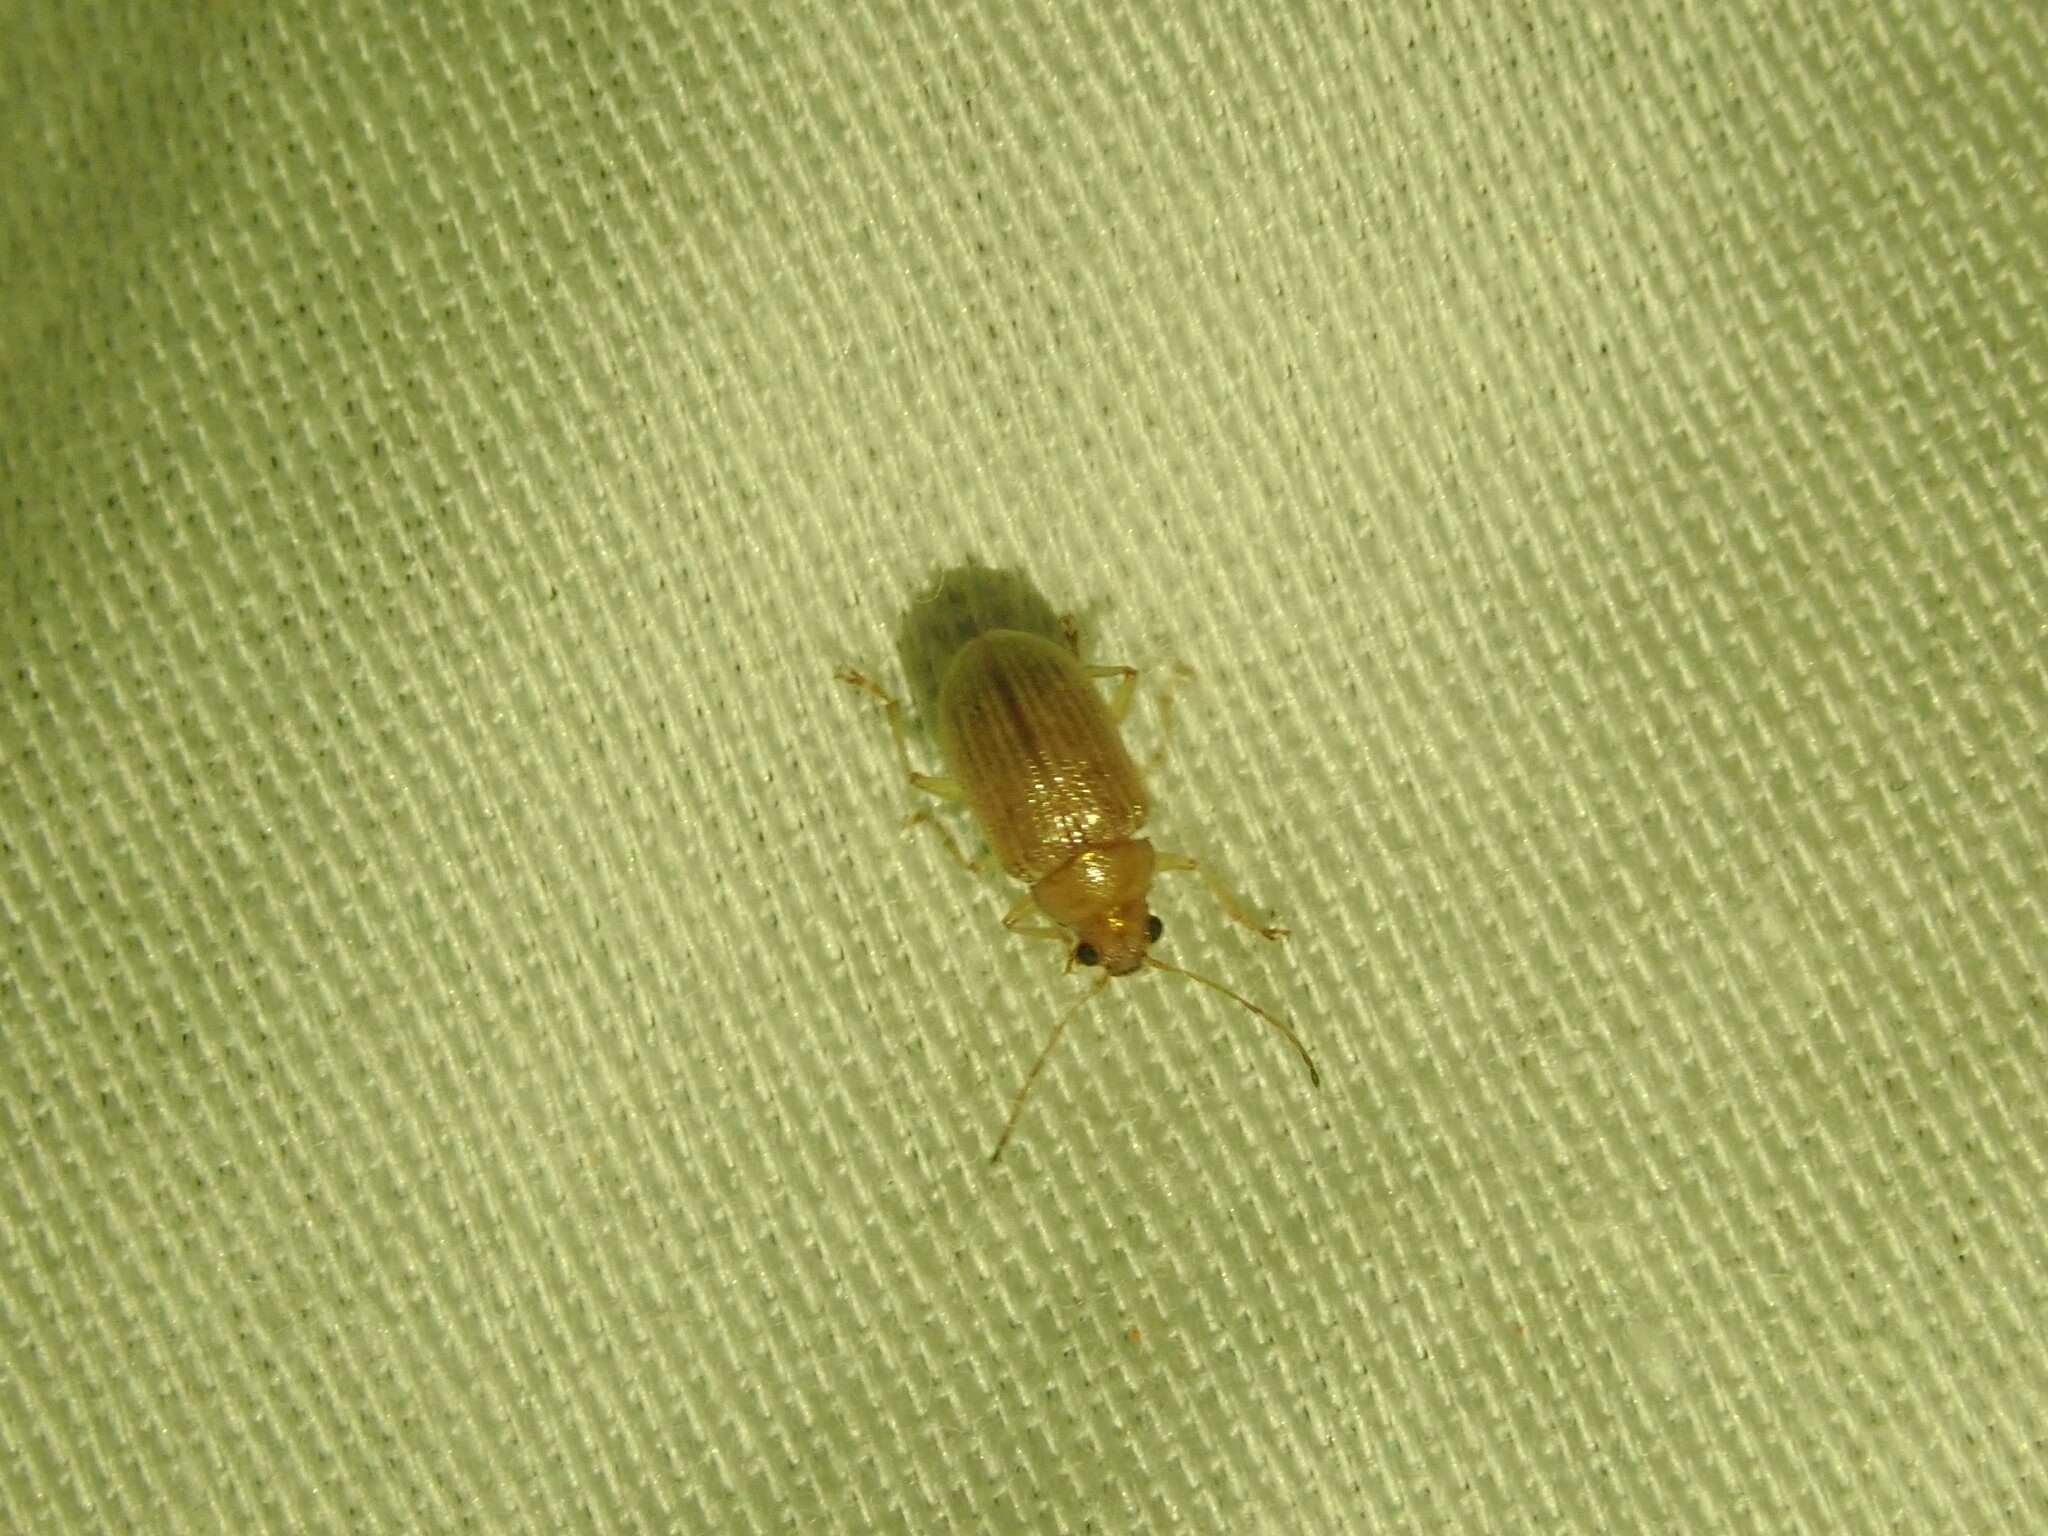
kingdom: Animalia
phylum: Arthropoda
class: Insecta
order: Coleoptera
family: Chrysomelidae
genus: Colaspis
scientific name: Colaspis brunnea
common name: Grape colaspis
